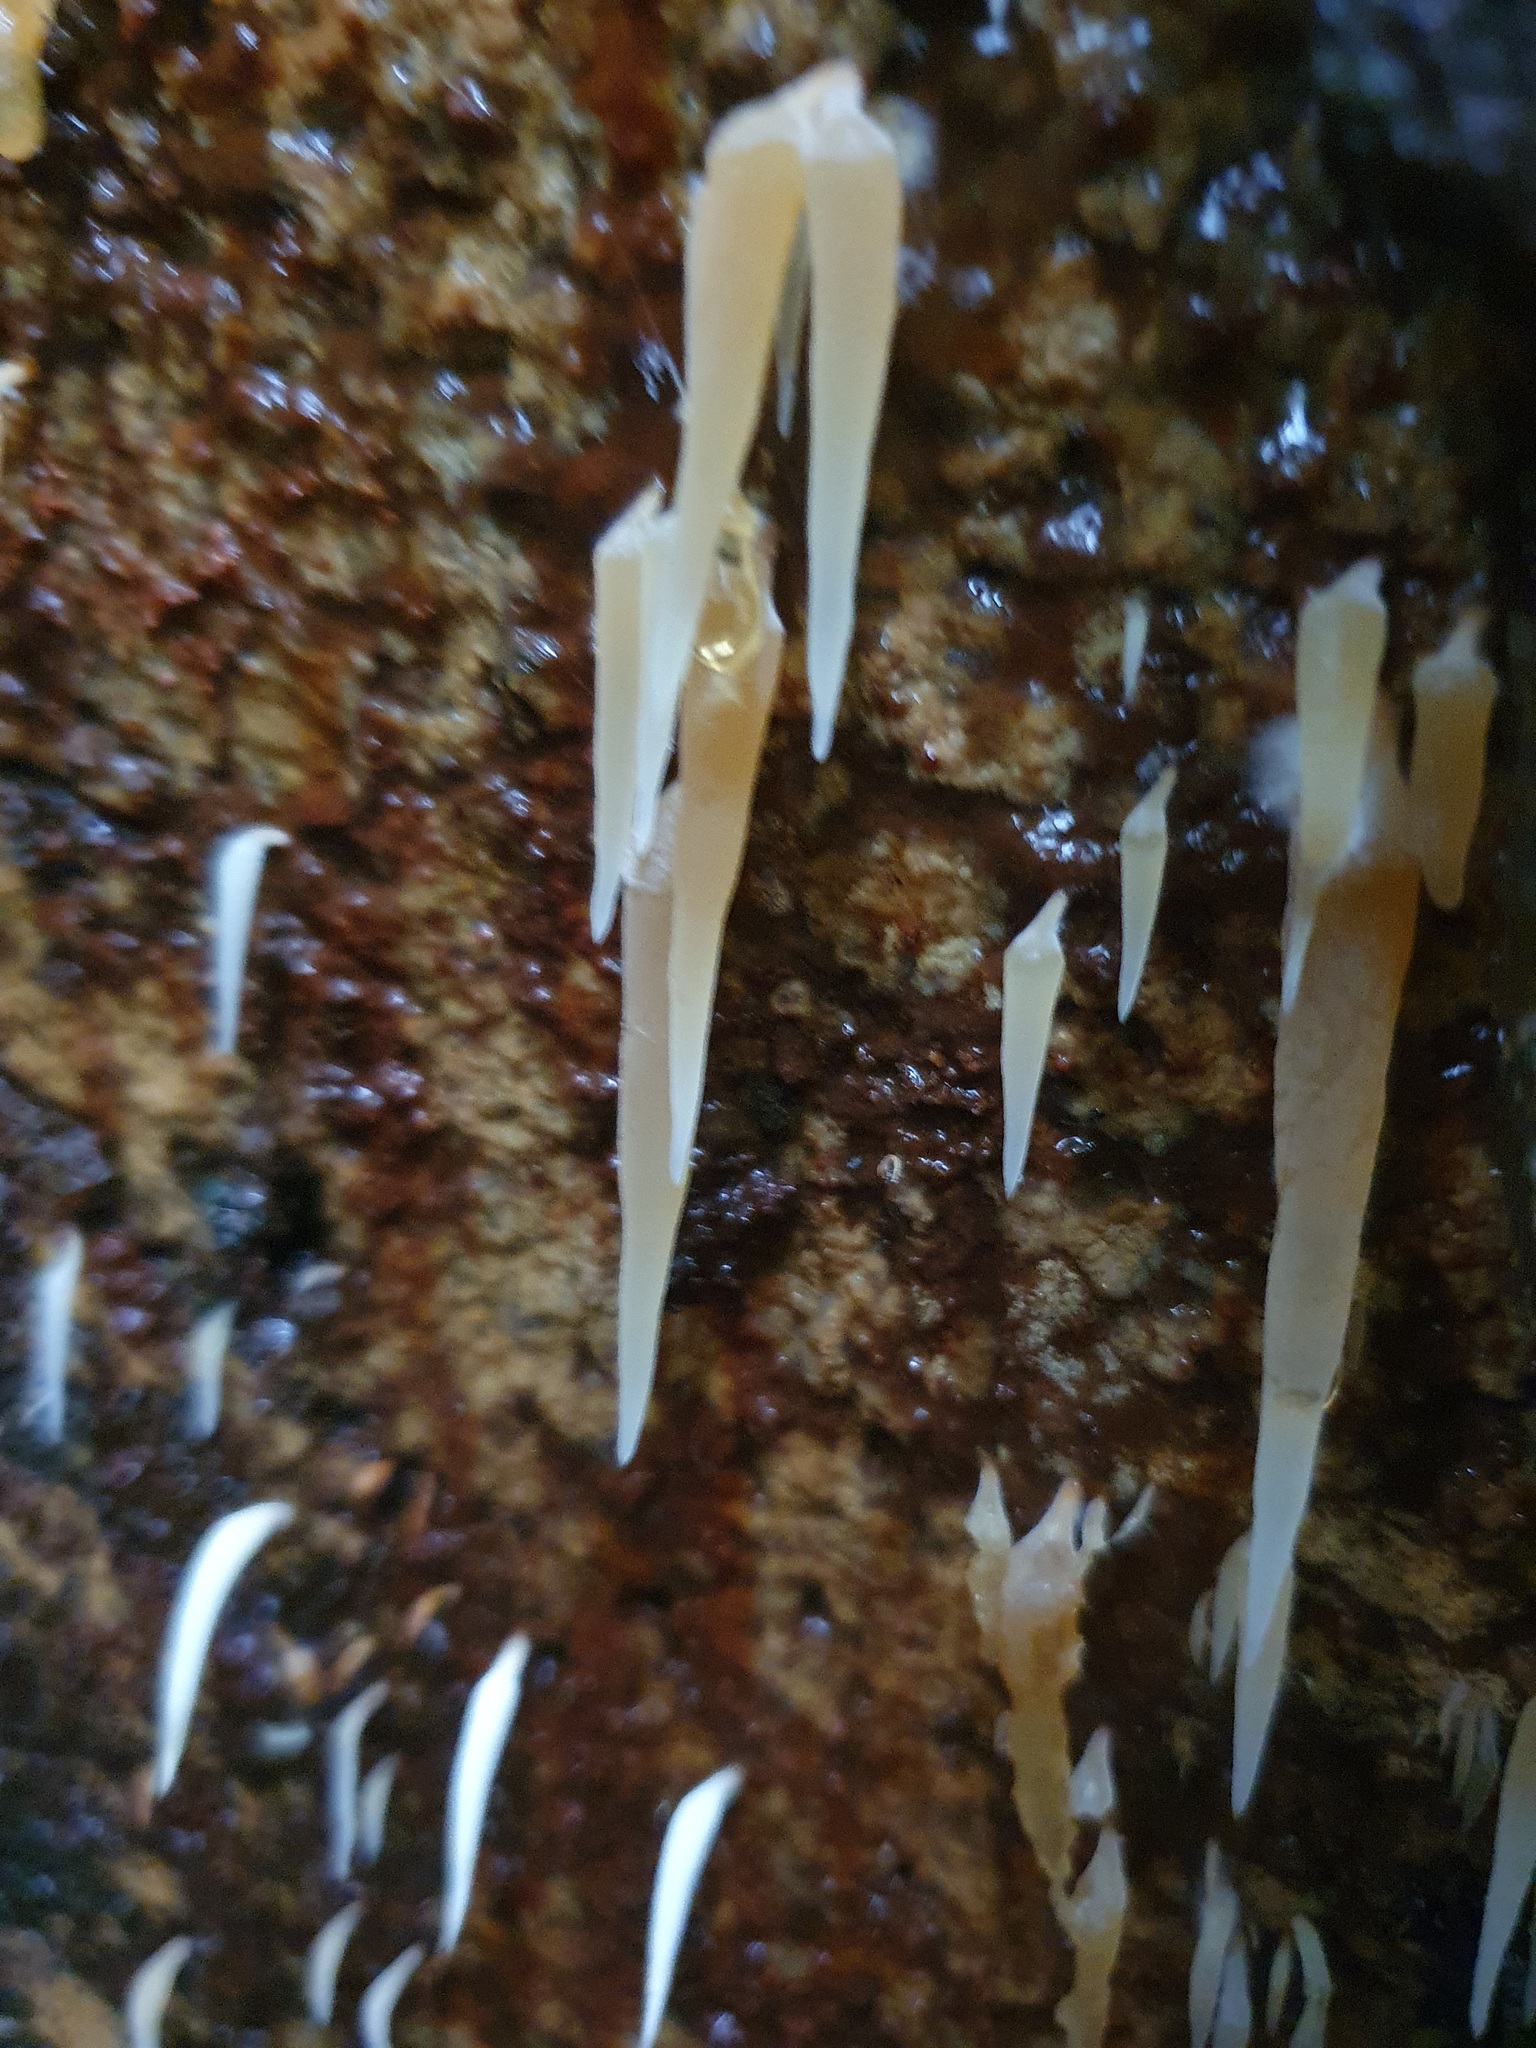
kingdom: Fungi
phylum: Basidiomycota
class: Agaricomycetes
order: Agaricales
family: Clavariaceae
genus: Mucronella
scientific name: Mucronella pendula
